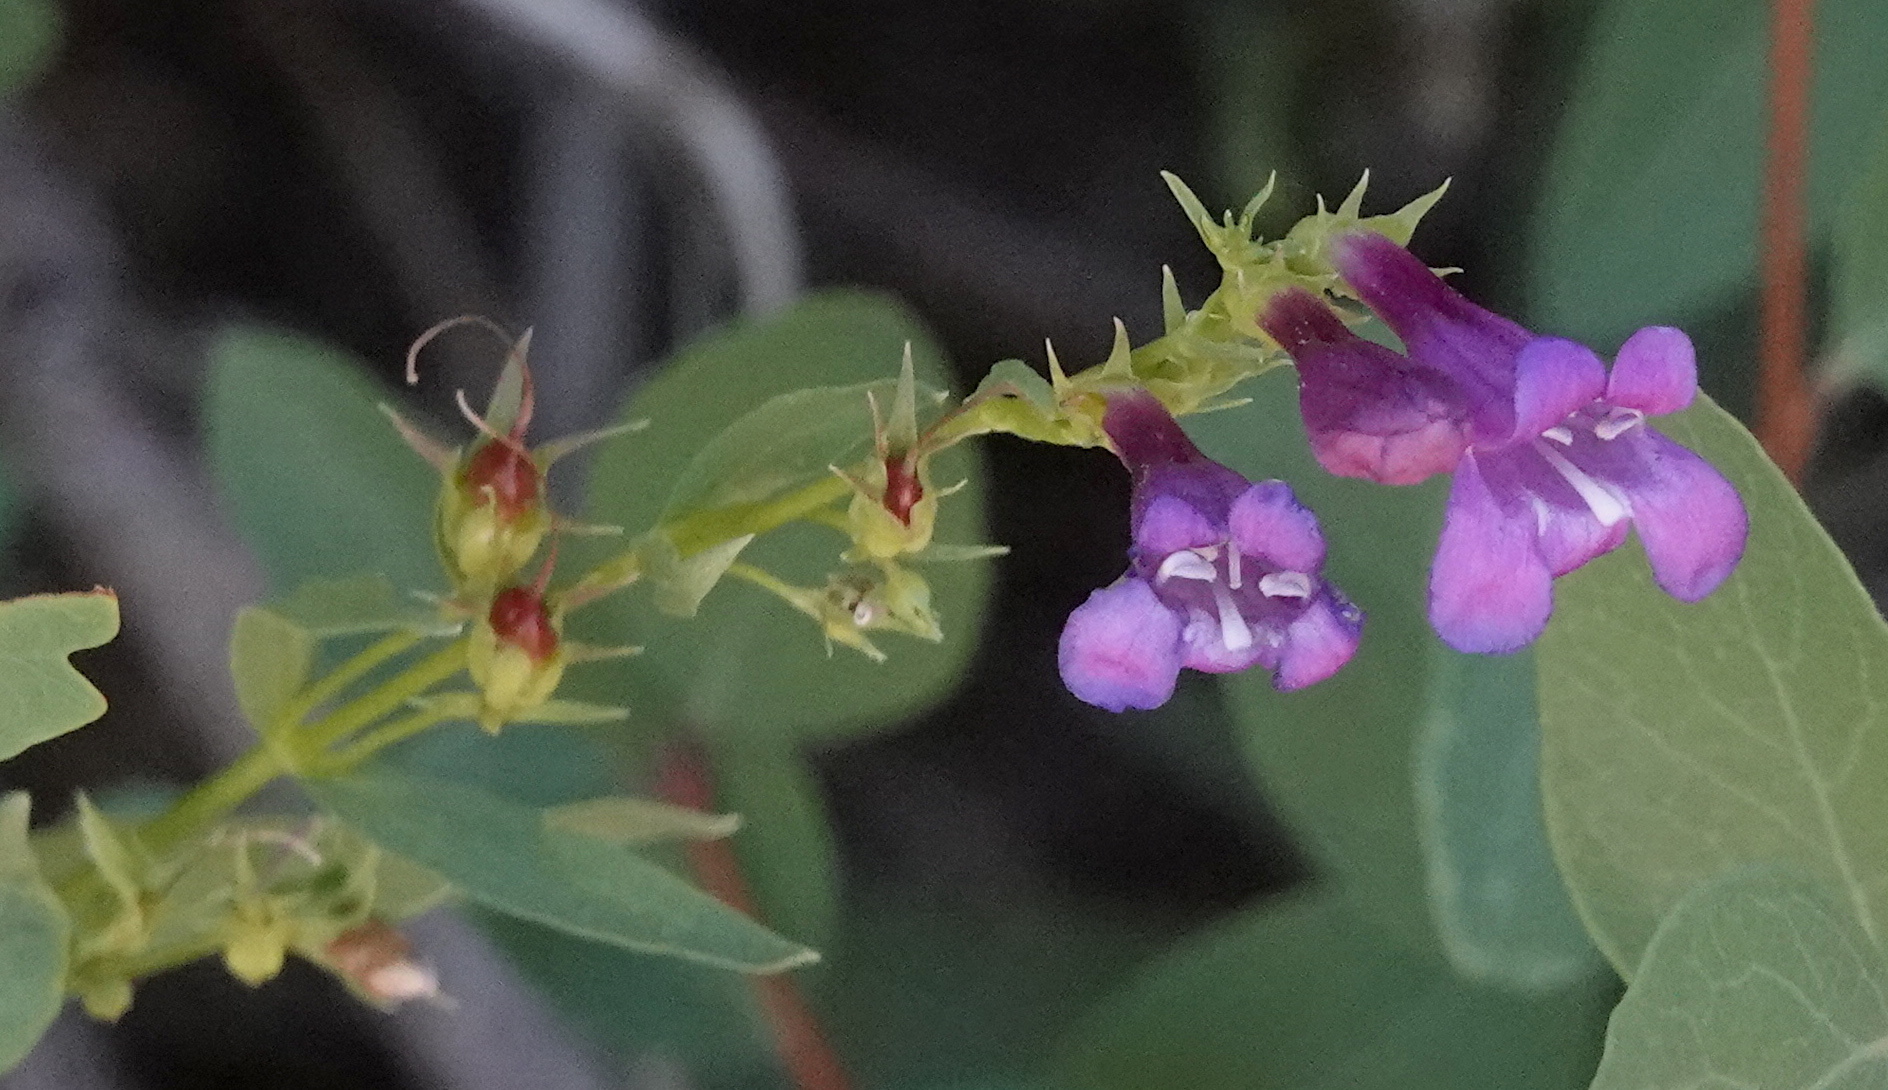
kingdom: Plantae
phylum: Tracheophyta
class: Magnoliopsida
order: Lamiales
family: Plantaginaceae
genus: Penstemon
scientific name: Penstemon leonardii
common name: Leonard's penstemon
